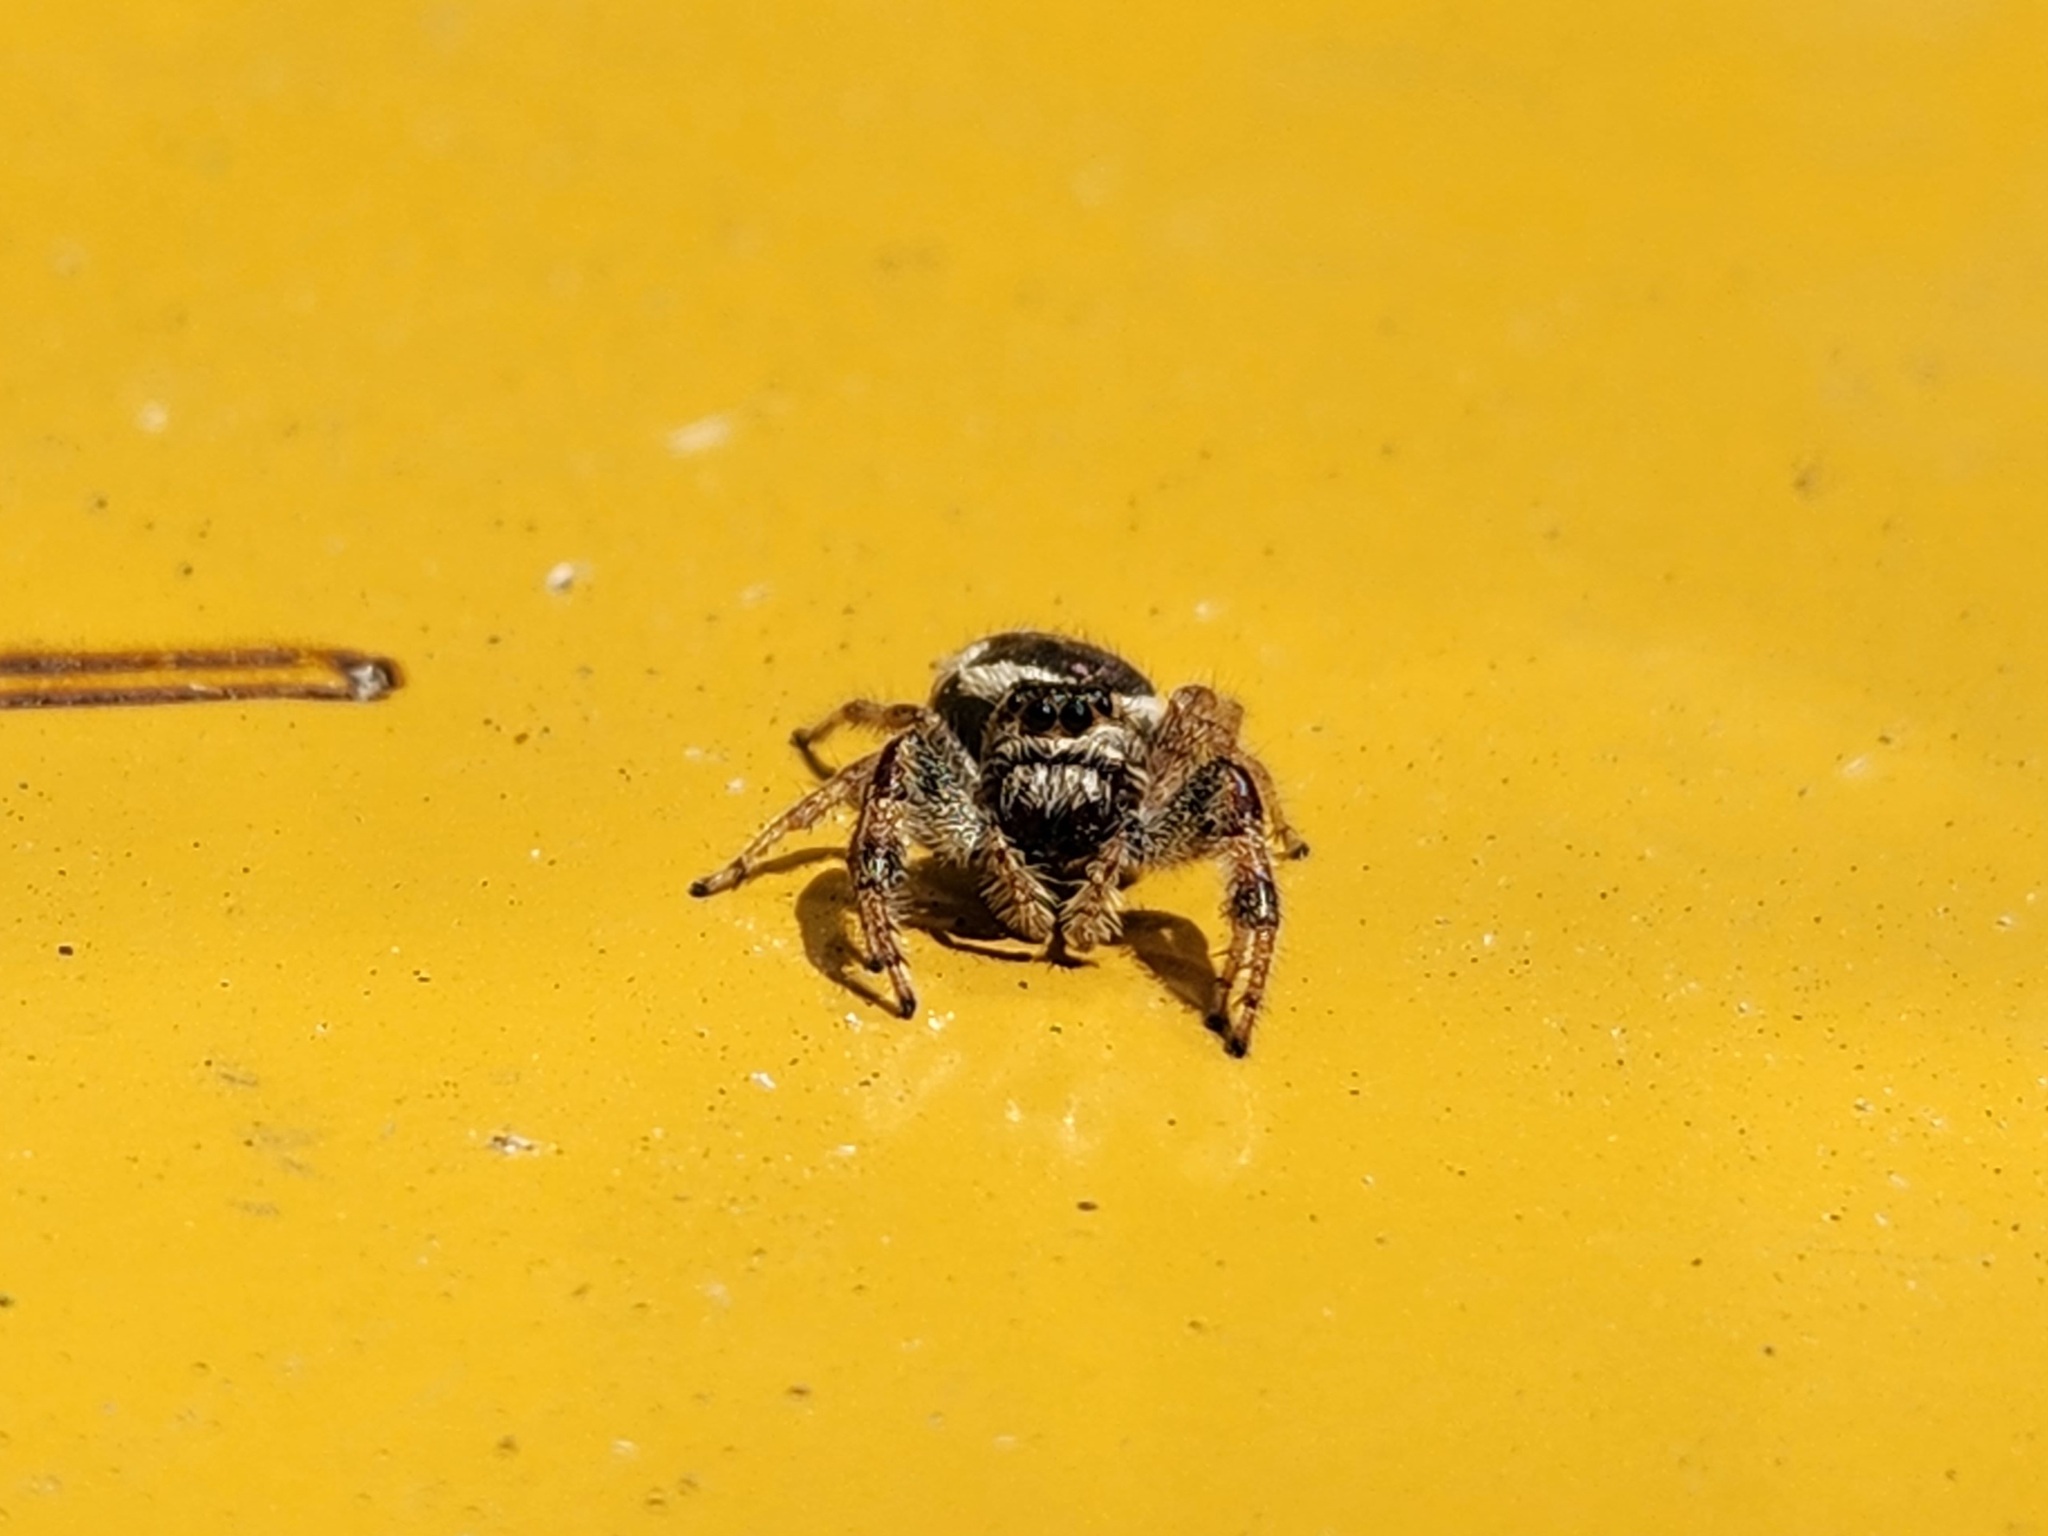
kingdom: Animalia
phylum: Arthropoda
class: Arachnida
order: Araneae
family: Salticidae
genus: Paraphidippus
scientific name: Paraphidippus aurantius
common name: Jumping spiders
